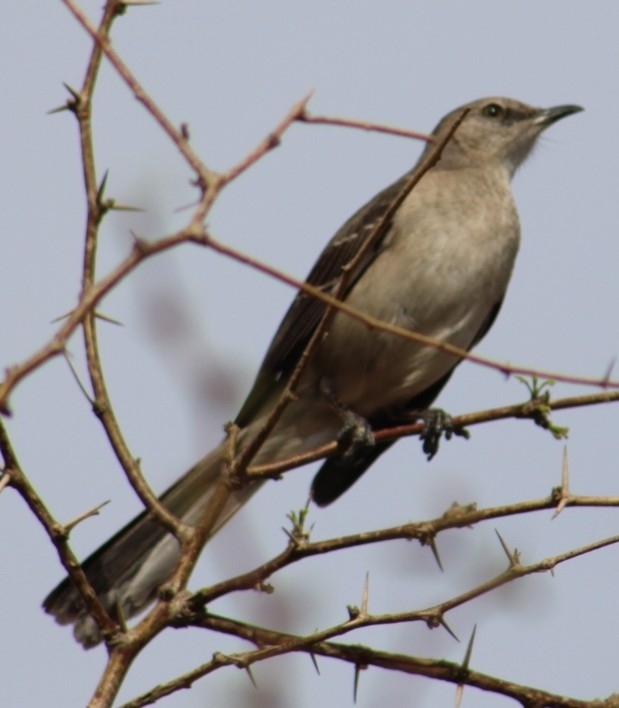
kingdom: Animalia
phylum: Chordata
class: Aves
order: Passeriformes
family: Mimidae
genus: Mimus
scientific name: Mimus polyglottos
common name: Northern mockingbird
